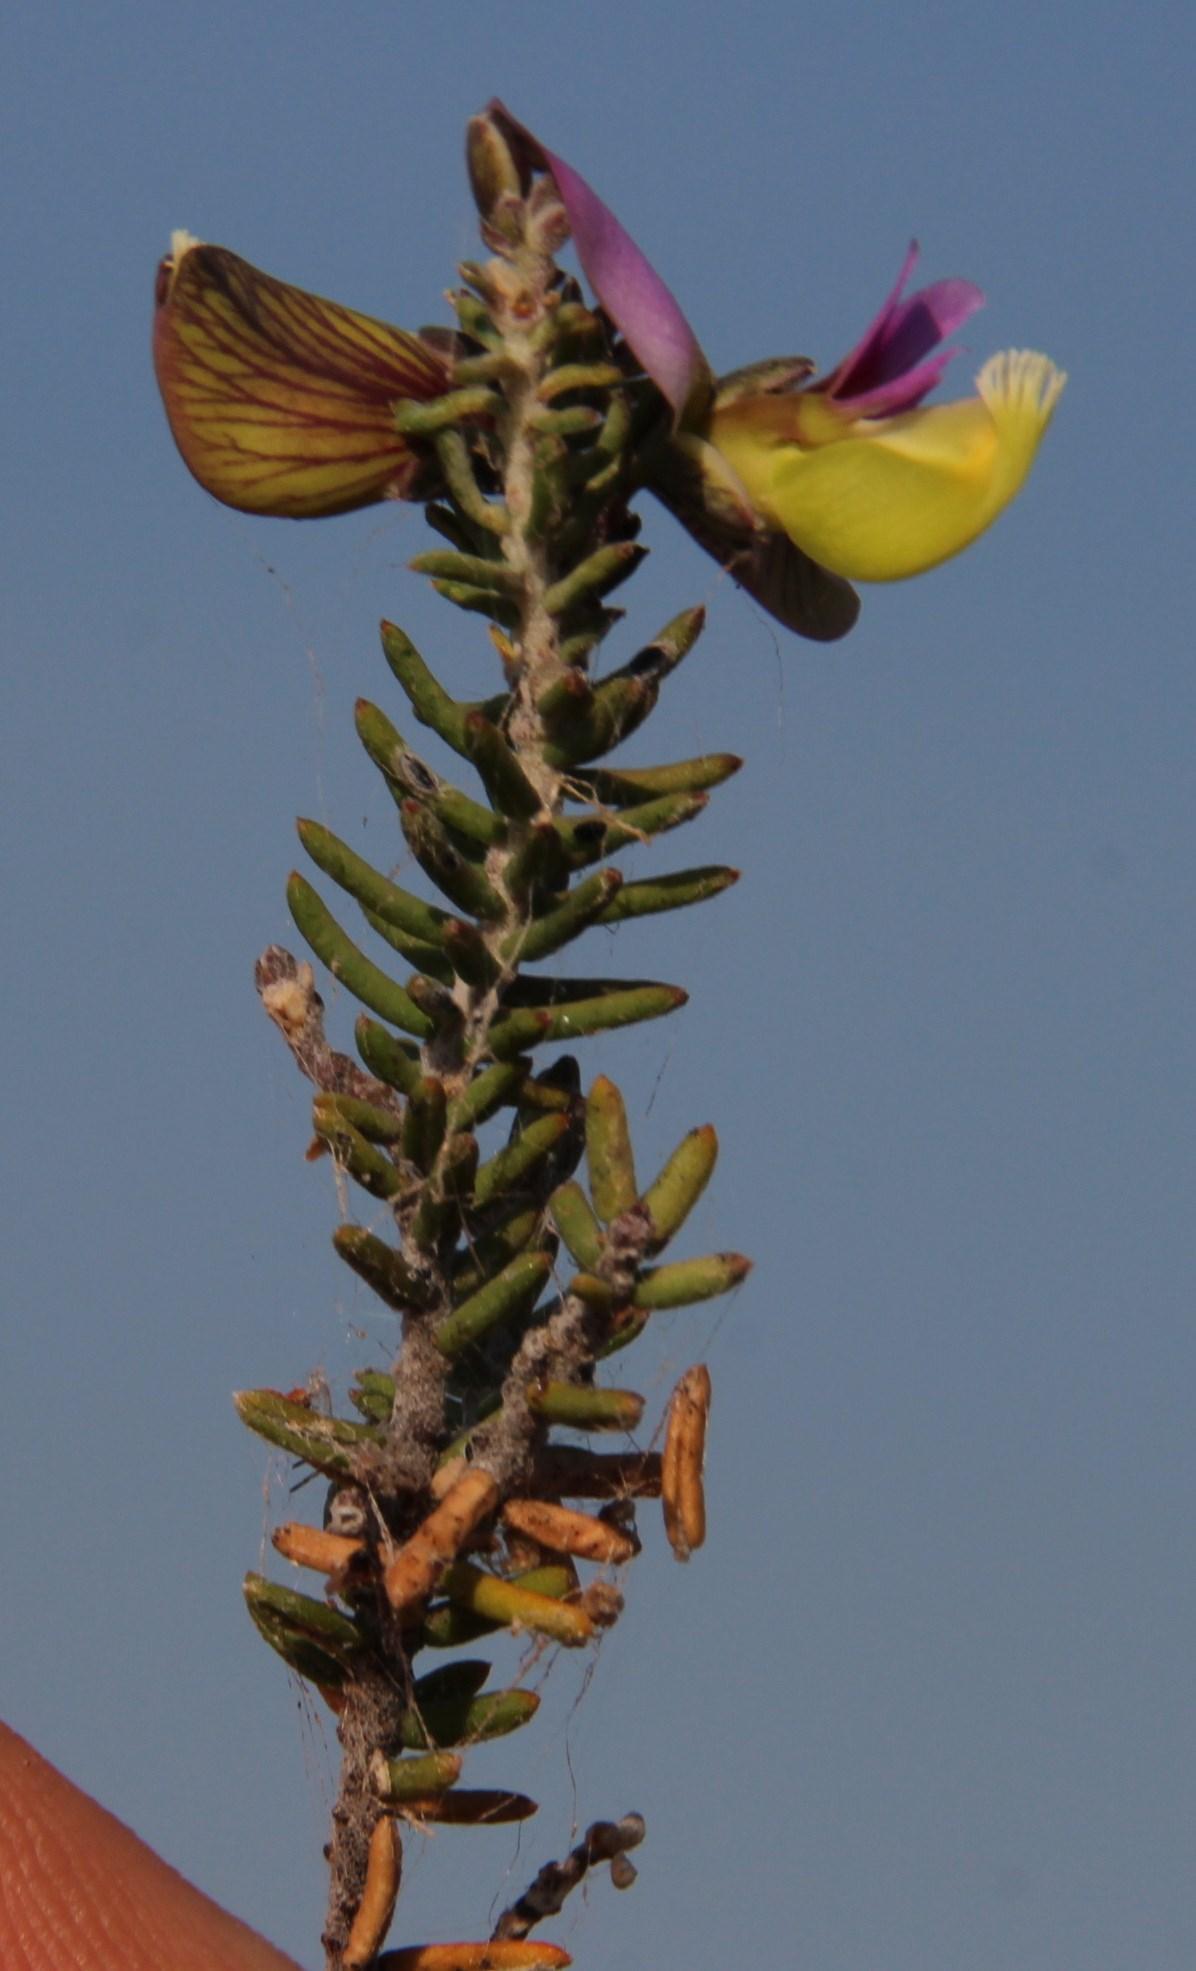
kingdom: Plantae
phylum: Tracheophyta
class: Magnoliopsida
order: Fabales
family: Polygalaceae
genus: Polygala
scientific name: Polygala teretifolia
